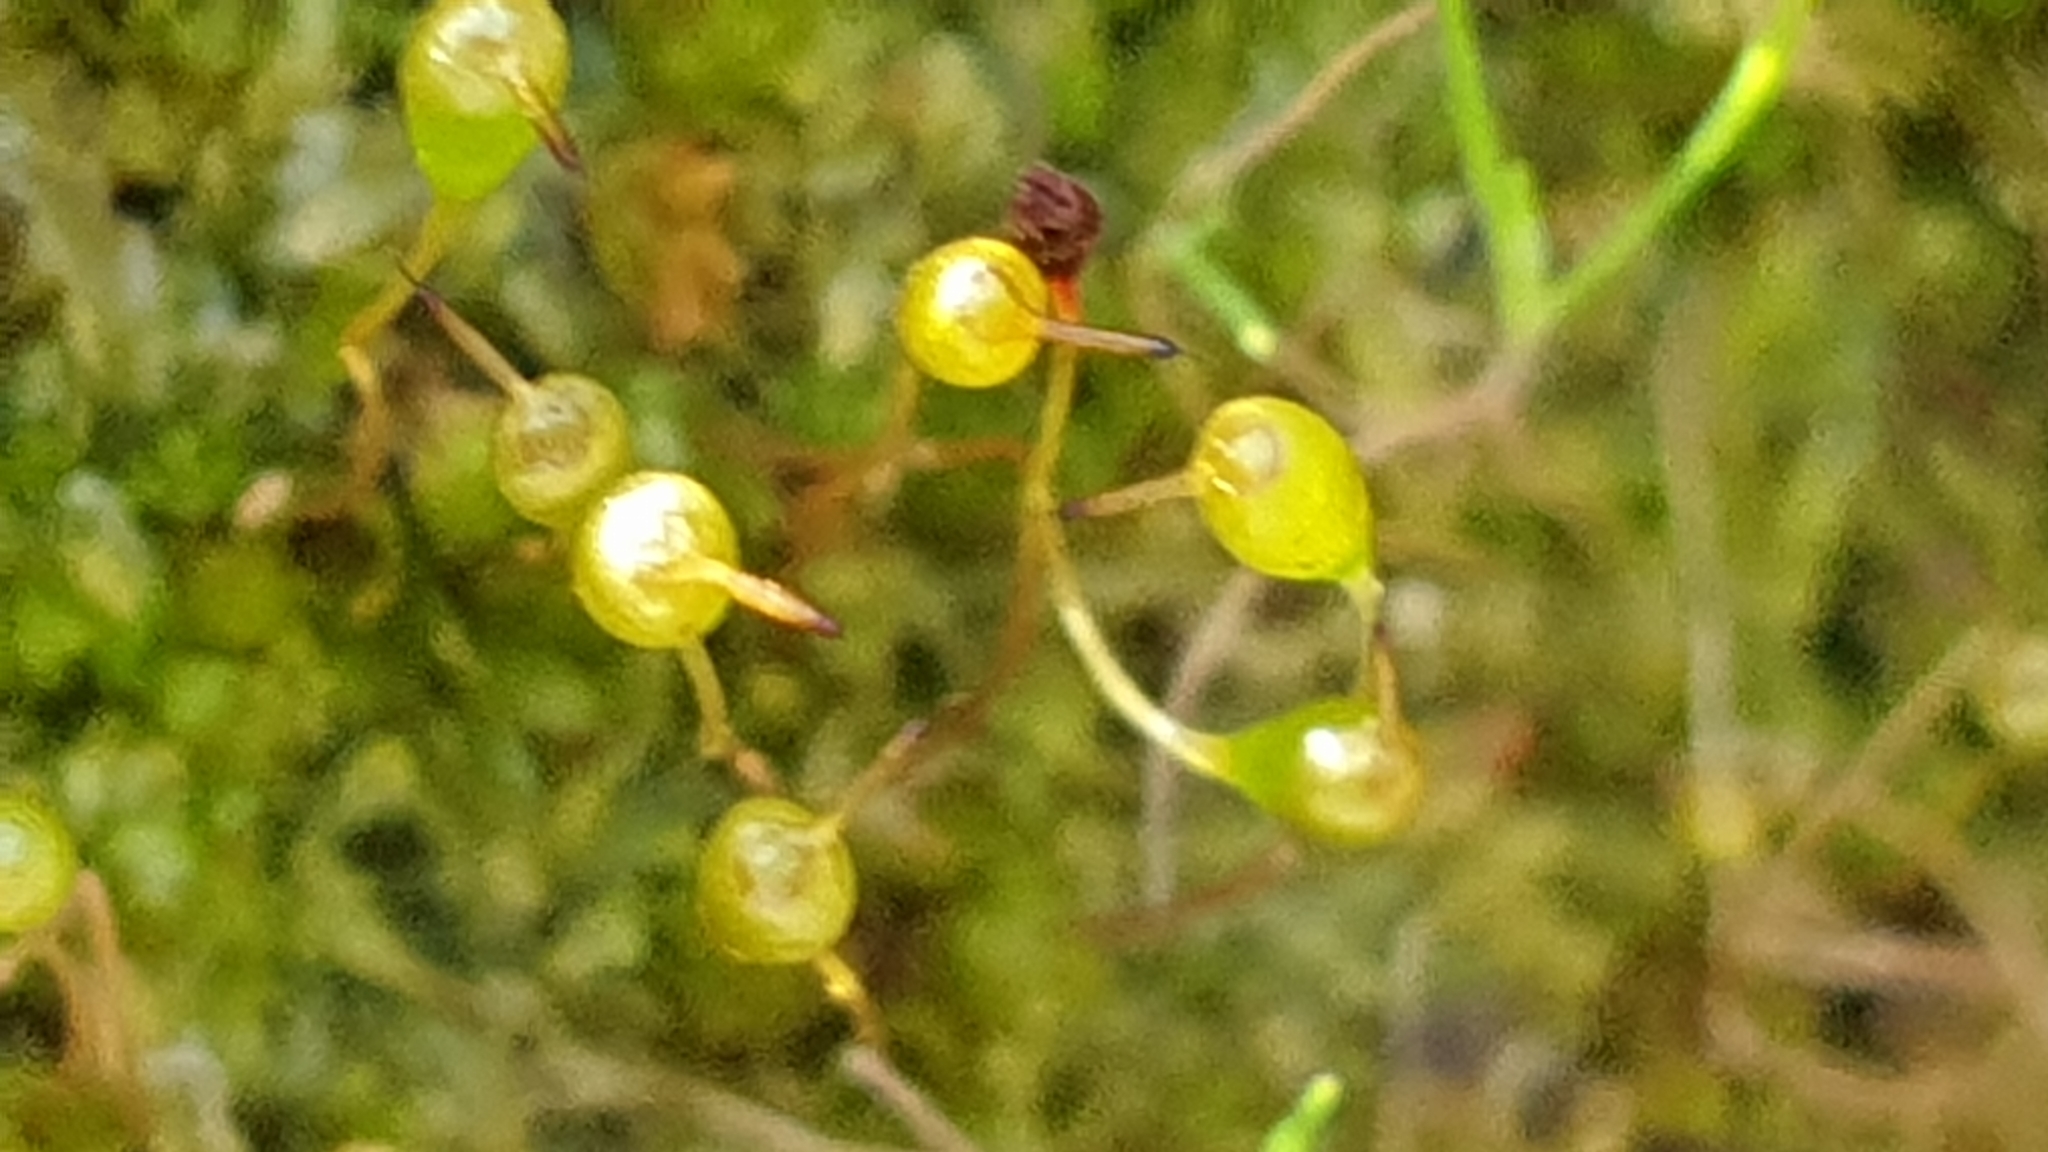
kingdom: Plantae
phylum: Bryophyta
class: Bryopsida
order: Funariales
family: Funariaceae
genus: Entosthodon
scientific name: Entosthodon subnudus
